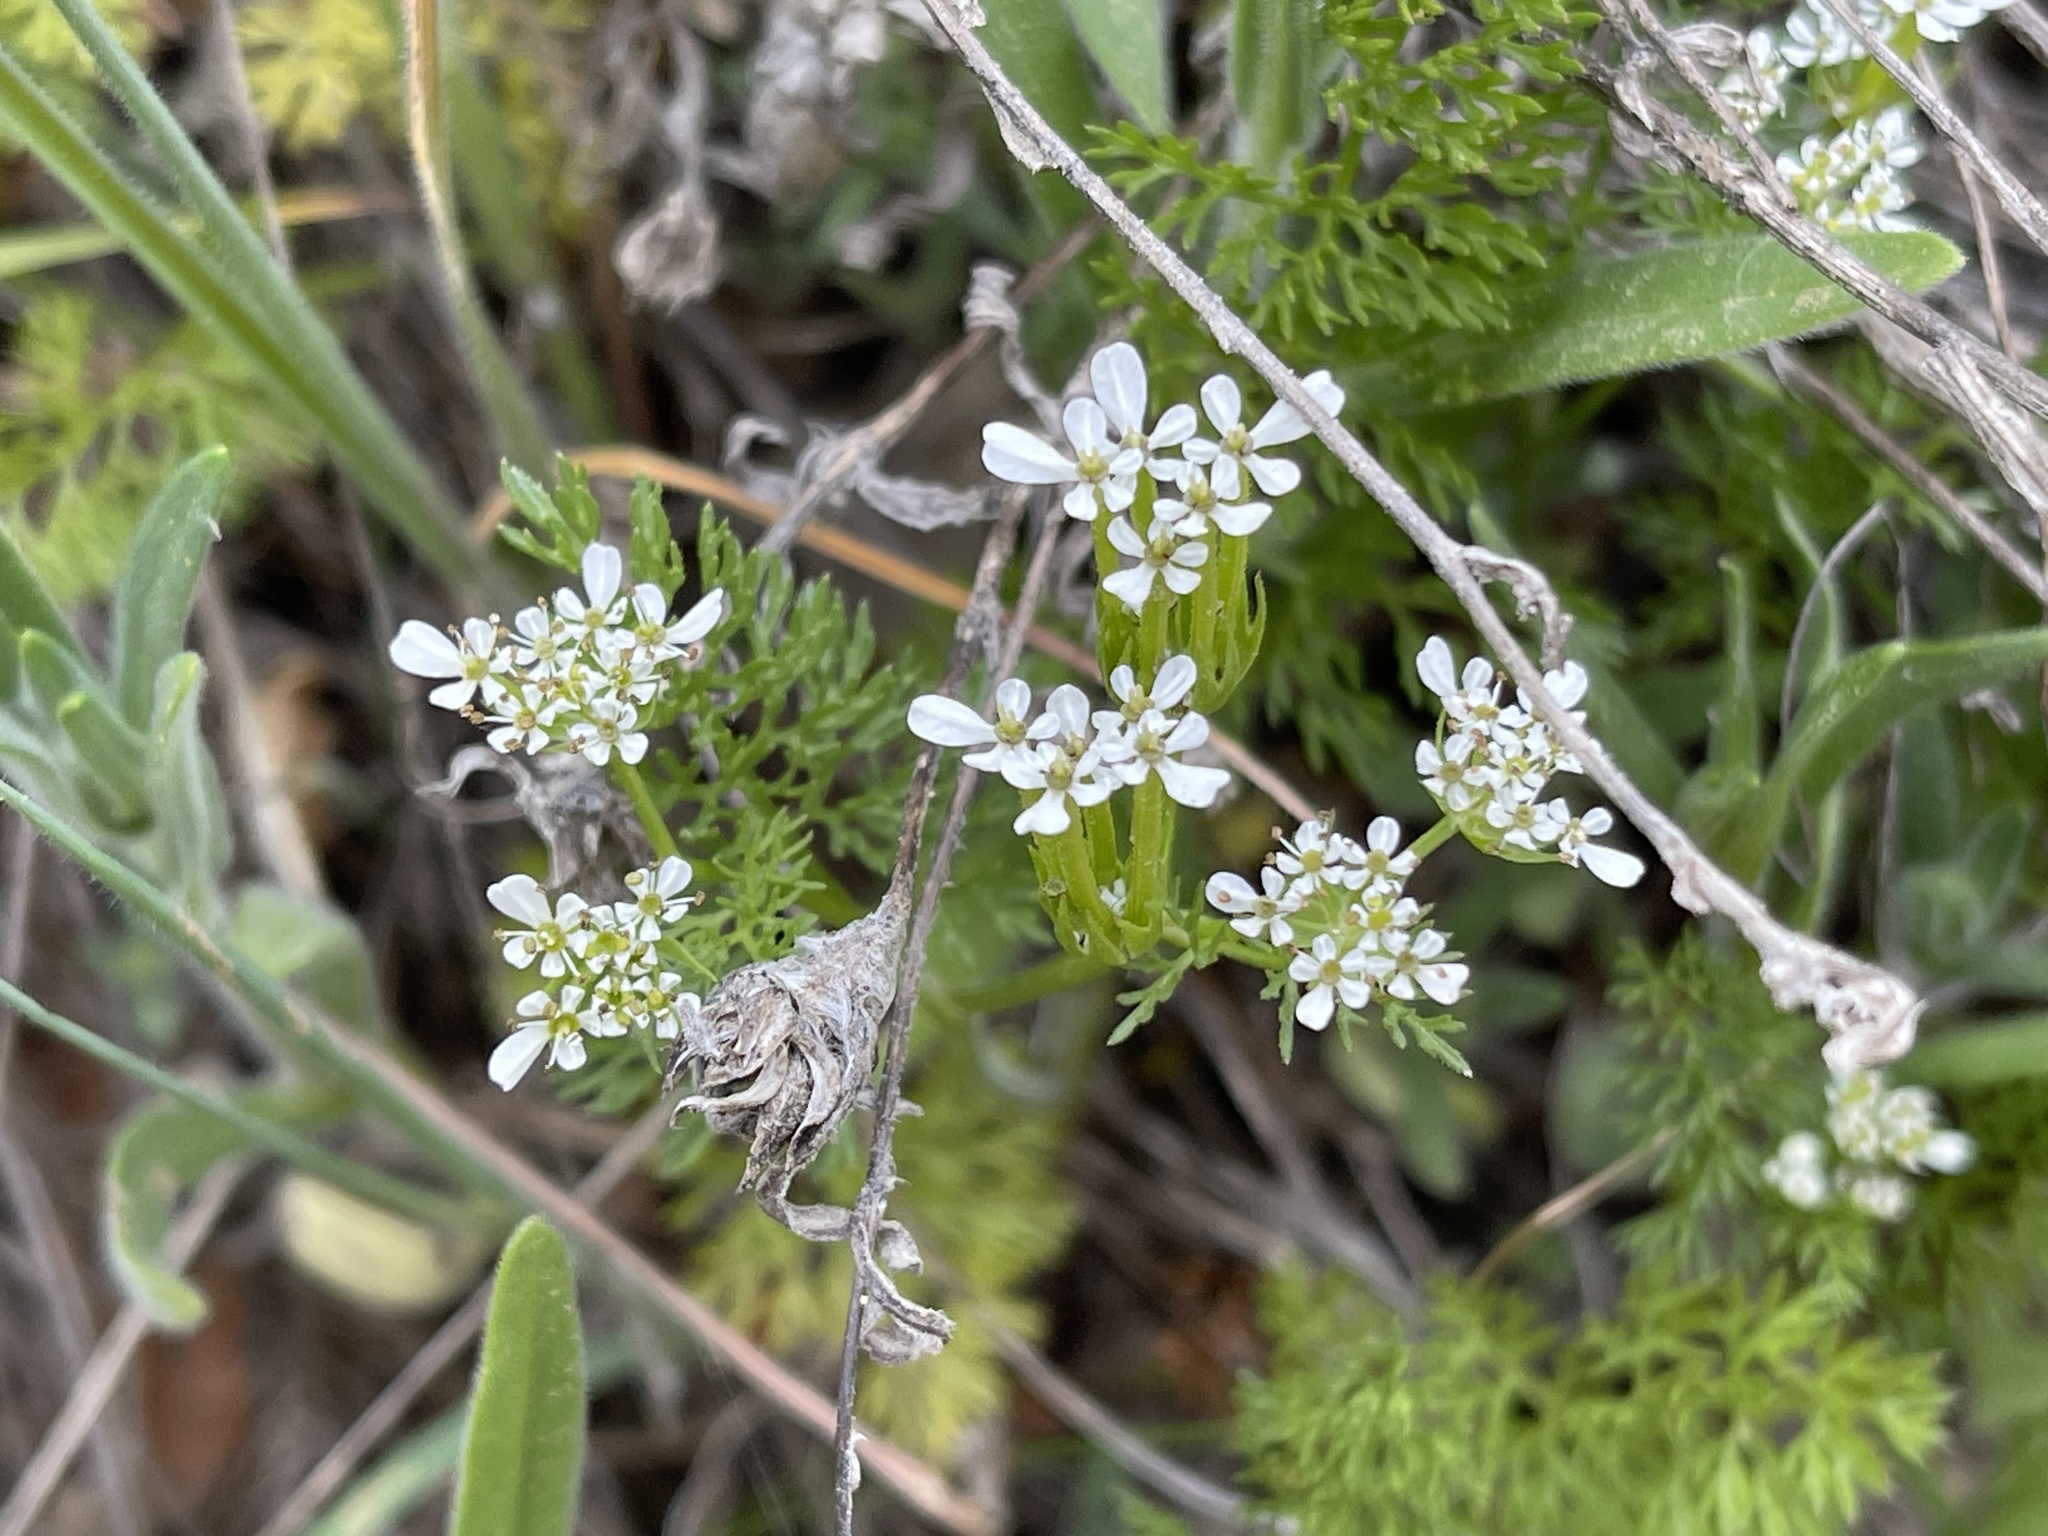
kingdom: Plantae
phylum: Tracheophyta
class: Magnoliopsida
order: Apiales
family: Apiaceae
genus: Scandix
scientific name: Scandix pecten-veneris
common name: Shepherd's-needle
